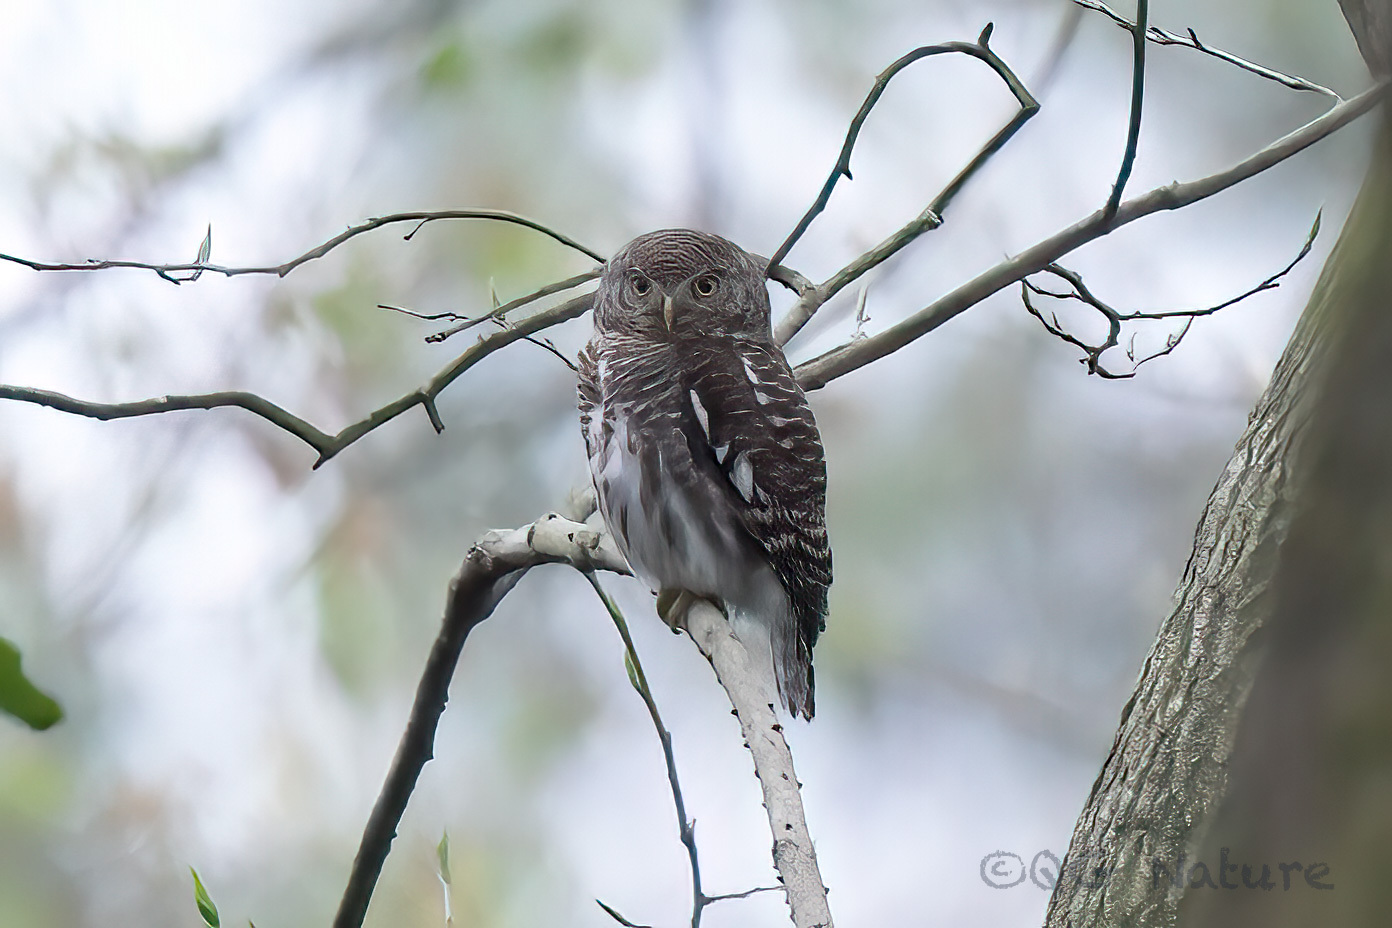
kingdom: Animalia
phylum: Chordata
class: Aves
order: Strigiformes
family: Strigidae
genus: Glaucidium
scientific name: Glaucidium cuculoides
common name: Asian barred owlet
